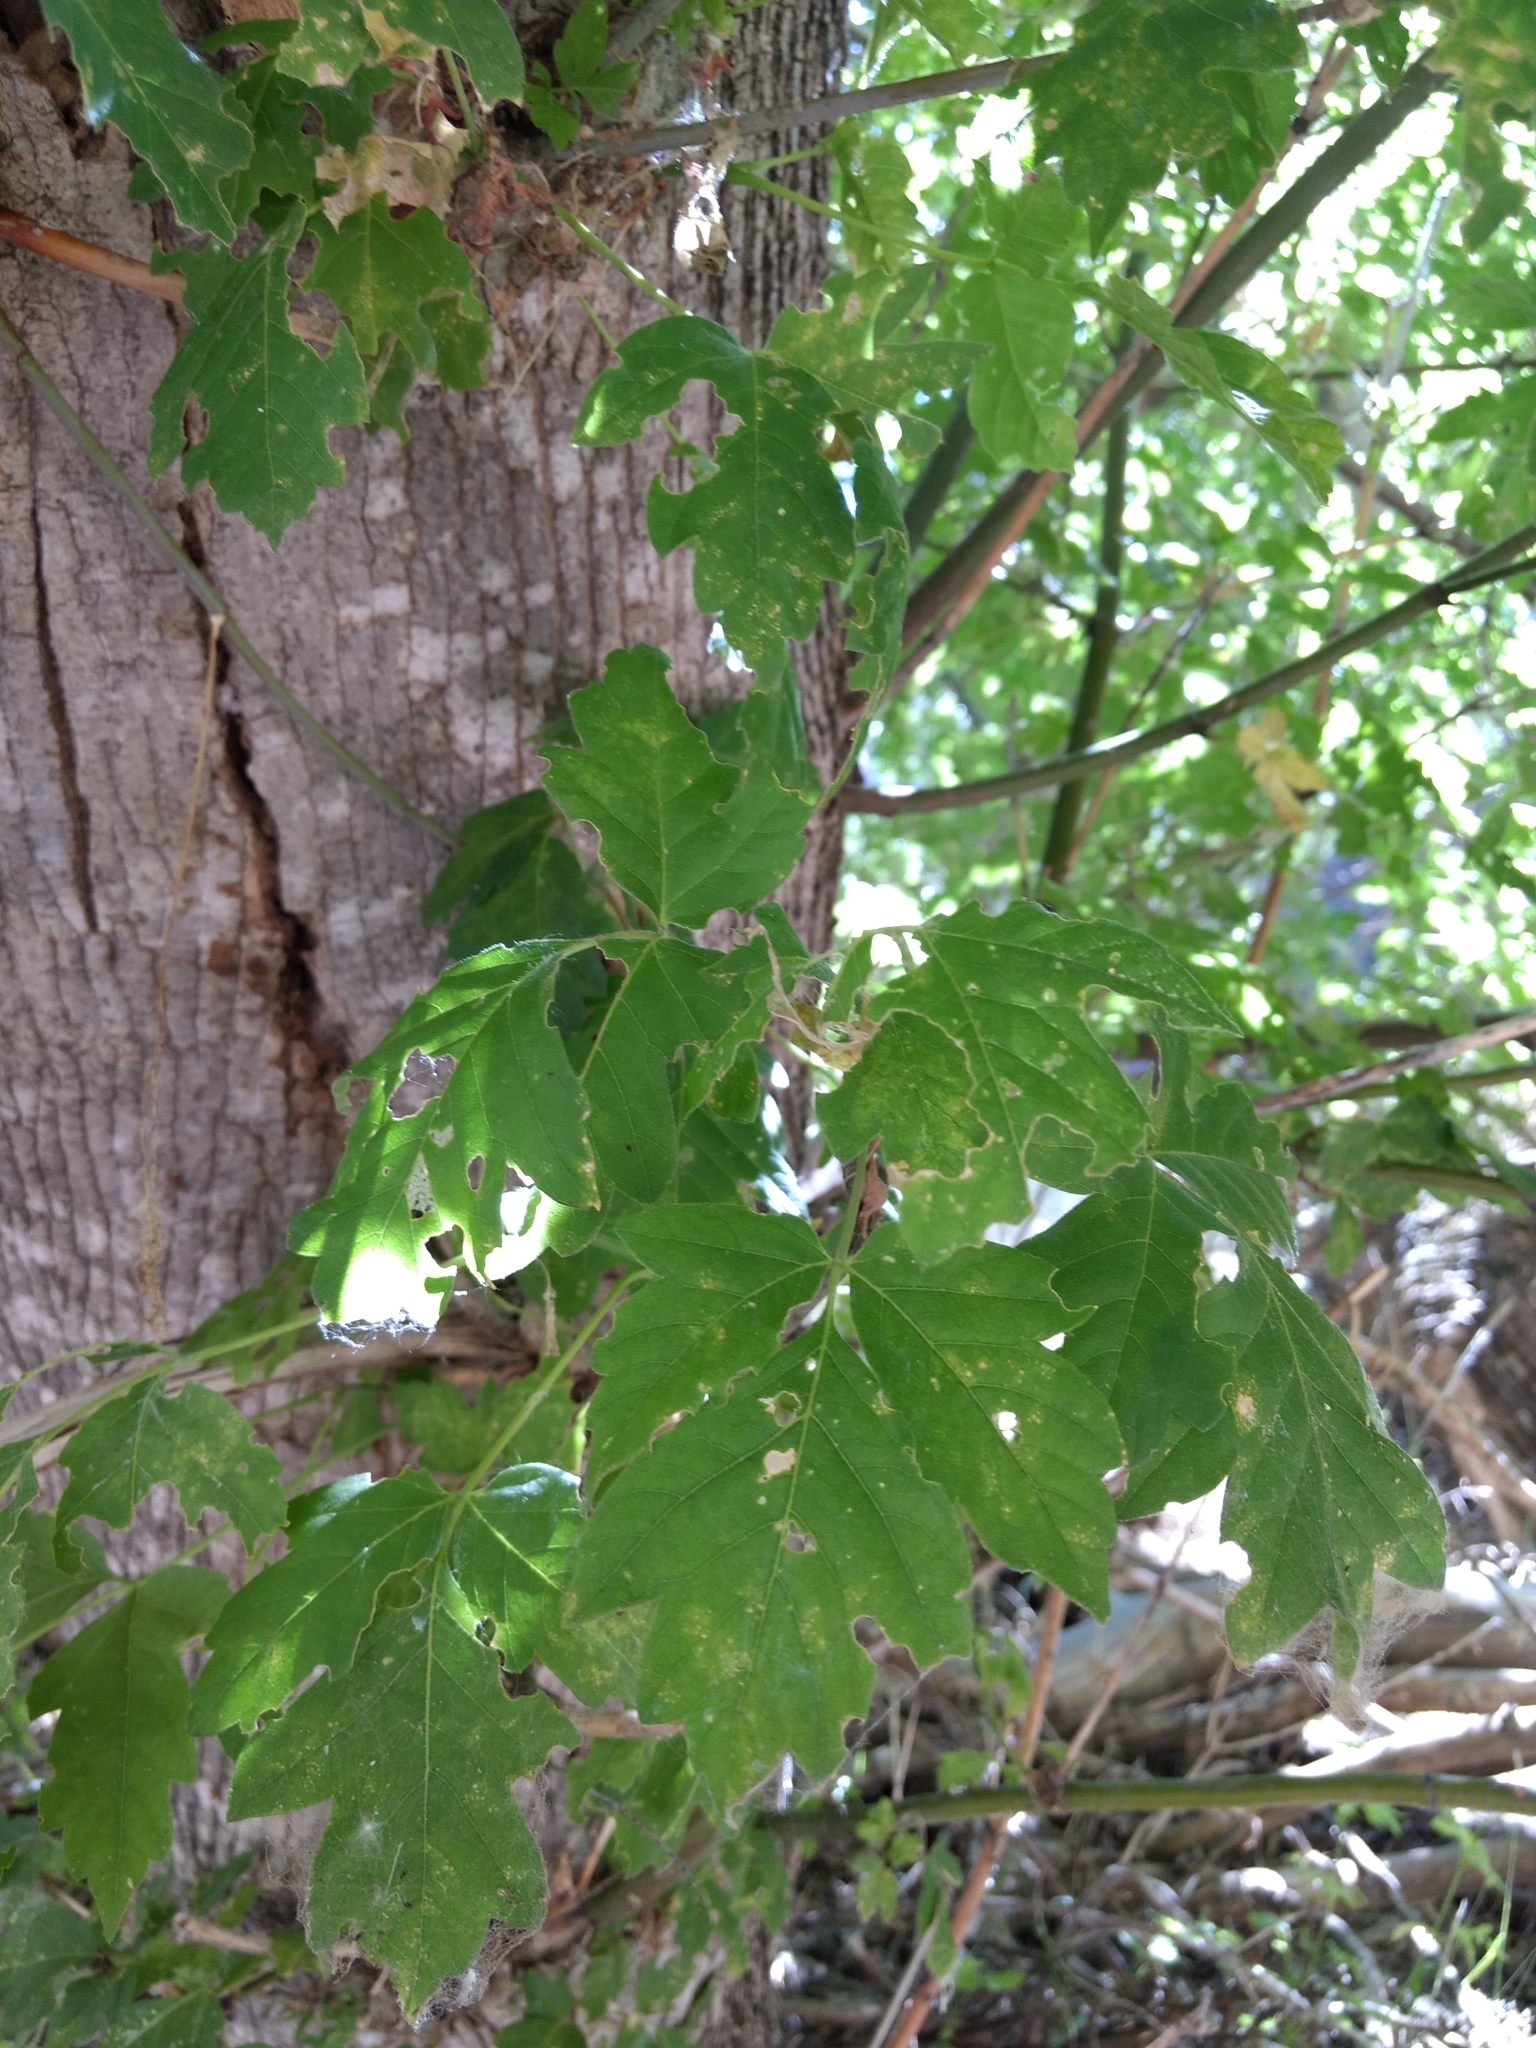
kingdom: Plantae
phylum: Tracheophyta
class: Magnoliopsida
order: Sapindales
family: Sapindaceae
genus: Acer
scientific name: Acer negundo
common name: Ashleaf maple
